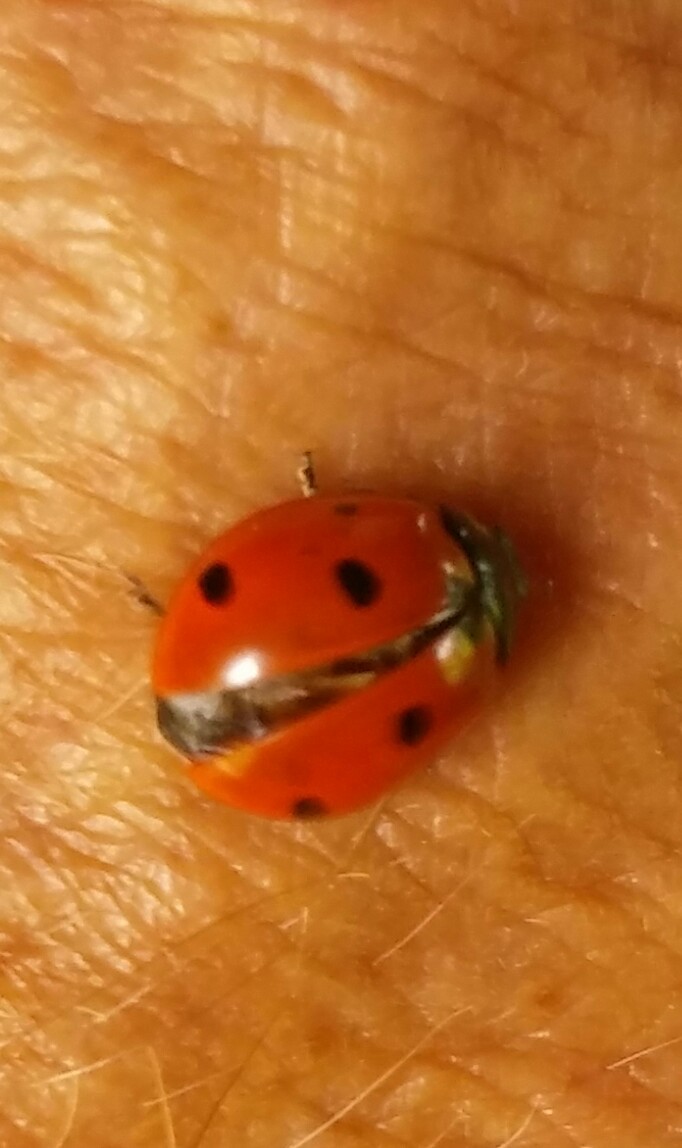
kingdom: Animalia
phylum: Arthropoda
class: Insecta
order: Coleoptera
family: Coccinellidae
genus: Coccinella
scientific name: Coccinella septempunctata
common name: Sevenspotted lady beetle
